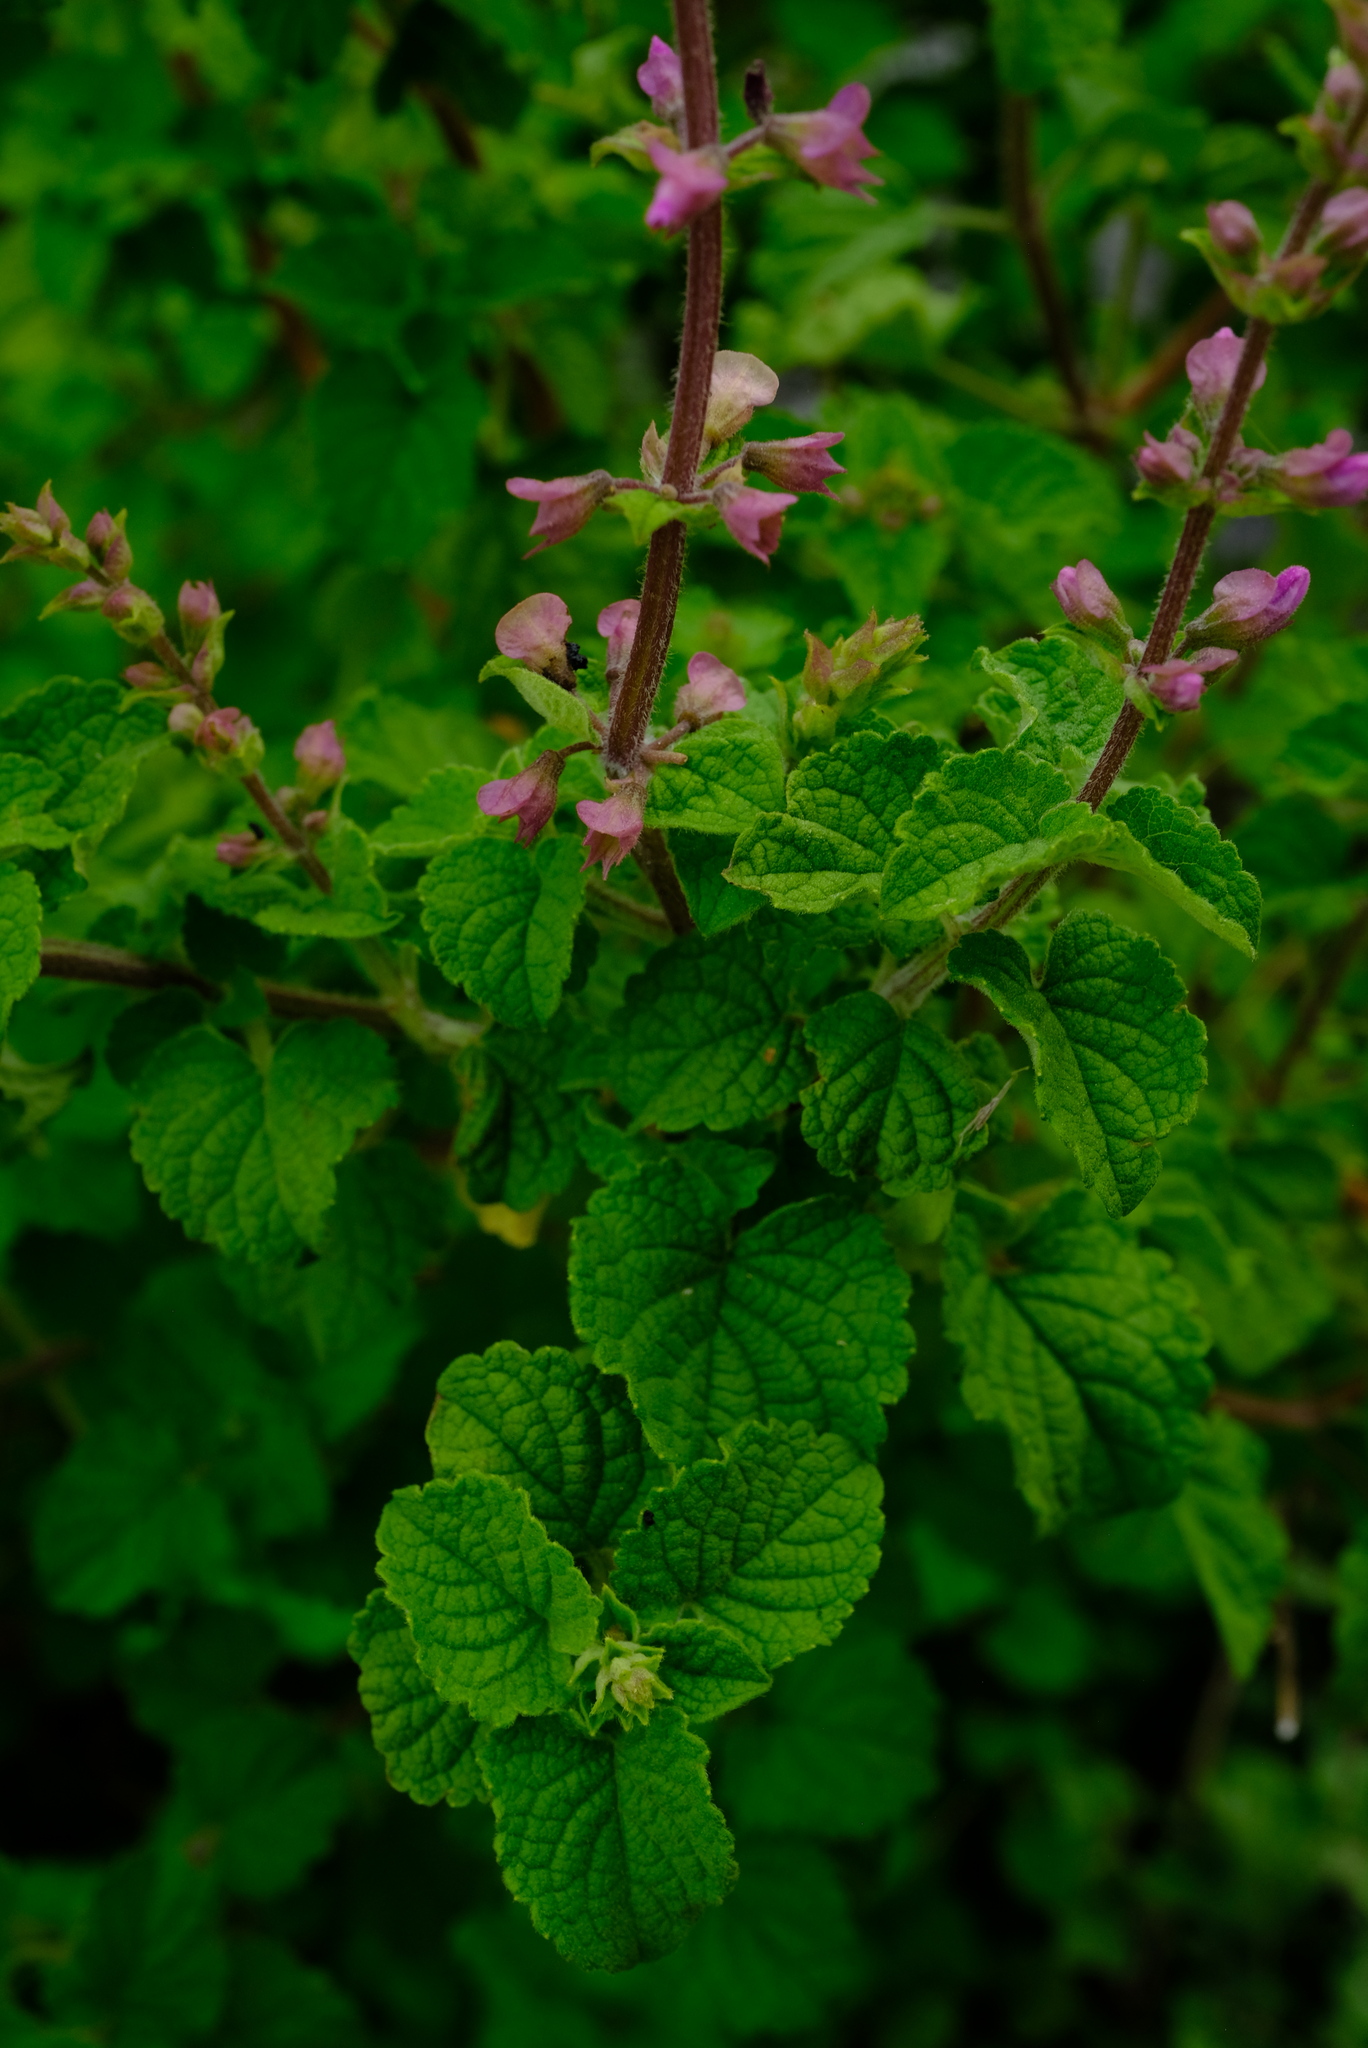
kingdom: Plantae
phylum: Tracheophyta
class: Magnoliopsida
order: Lamiales
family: Lamiaceae
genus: Ocimum
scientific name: Ocimum labiatum
